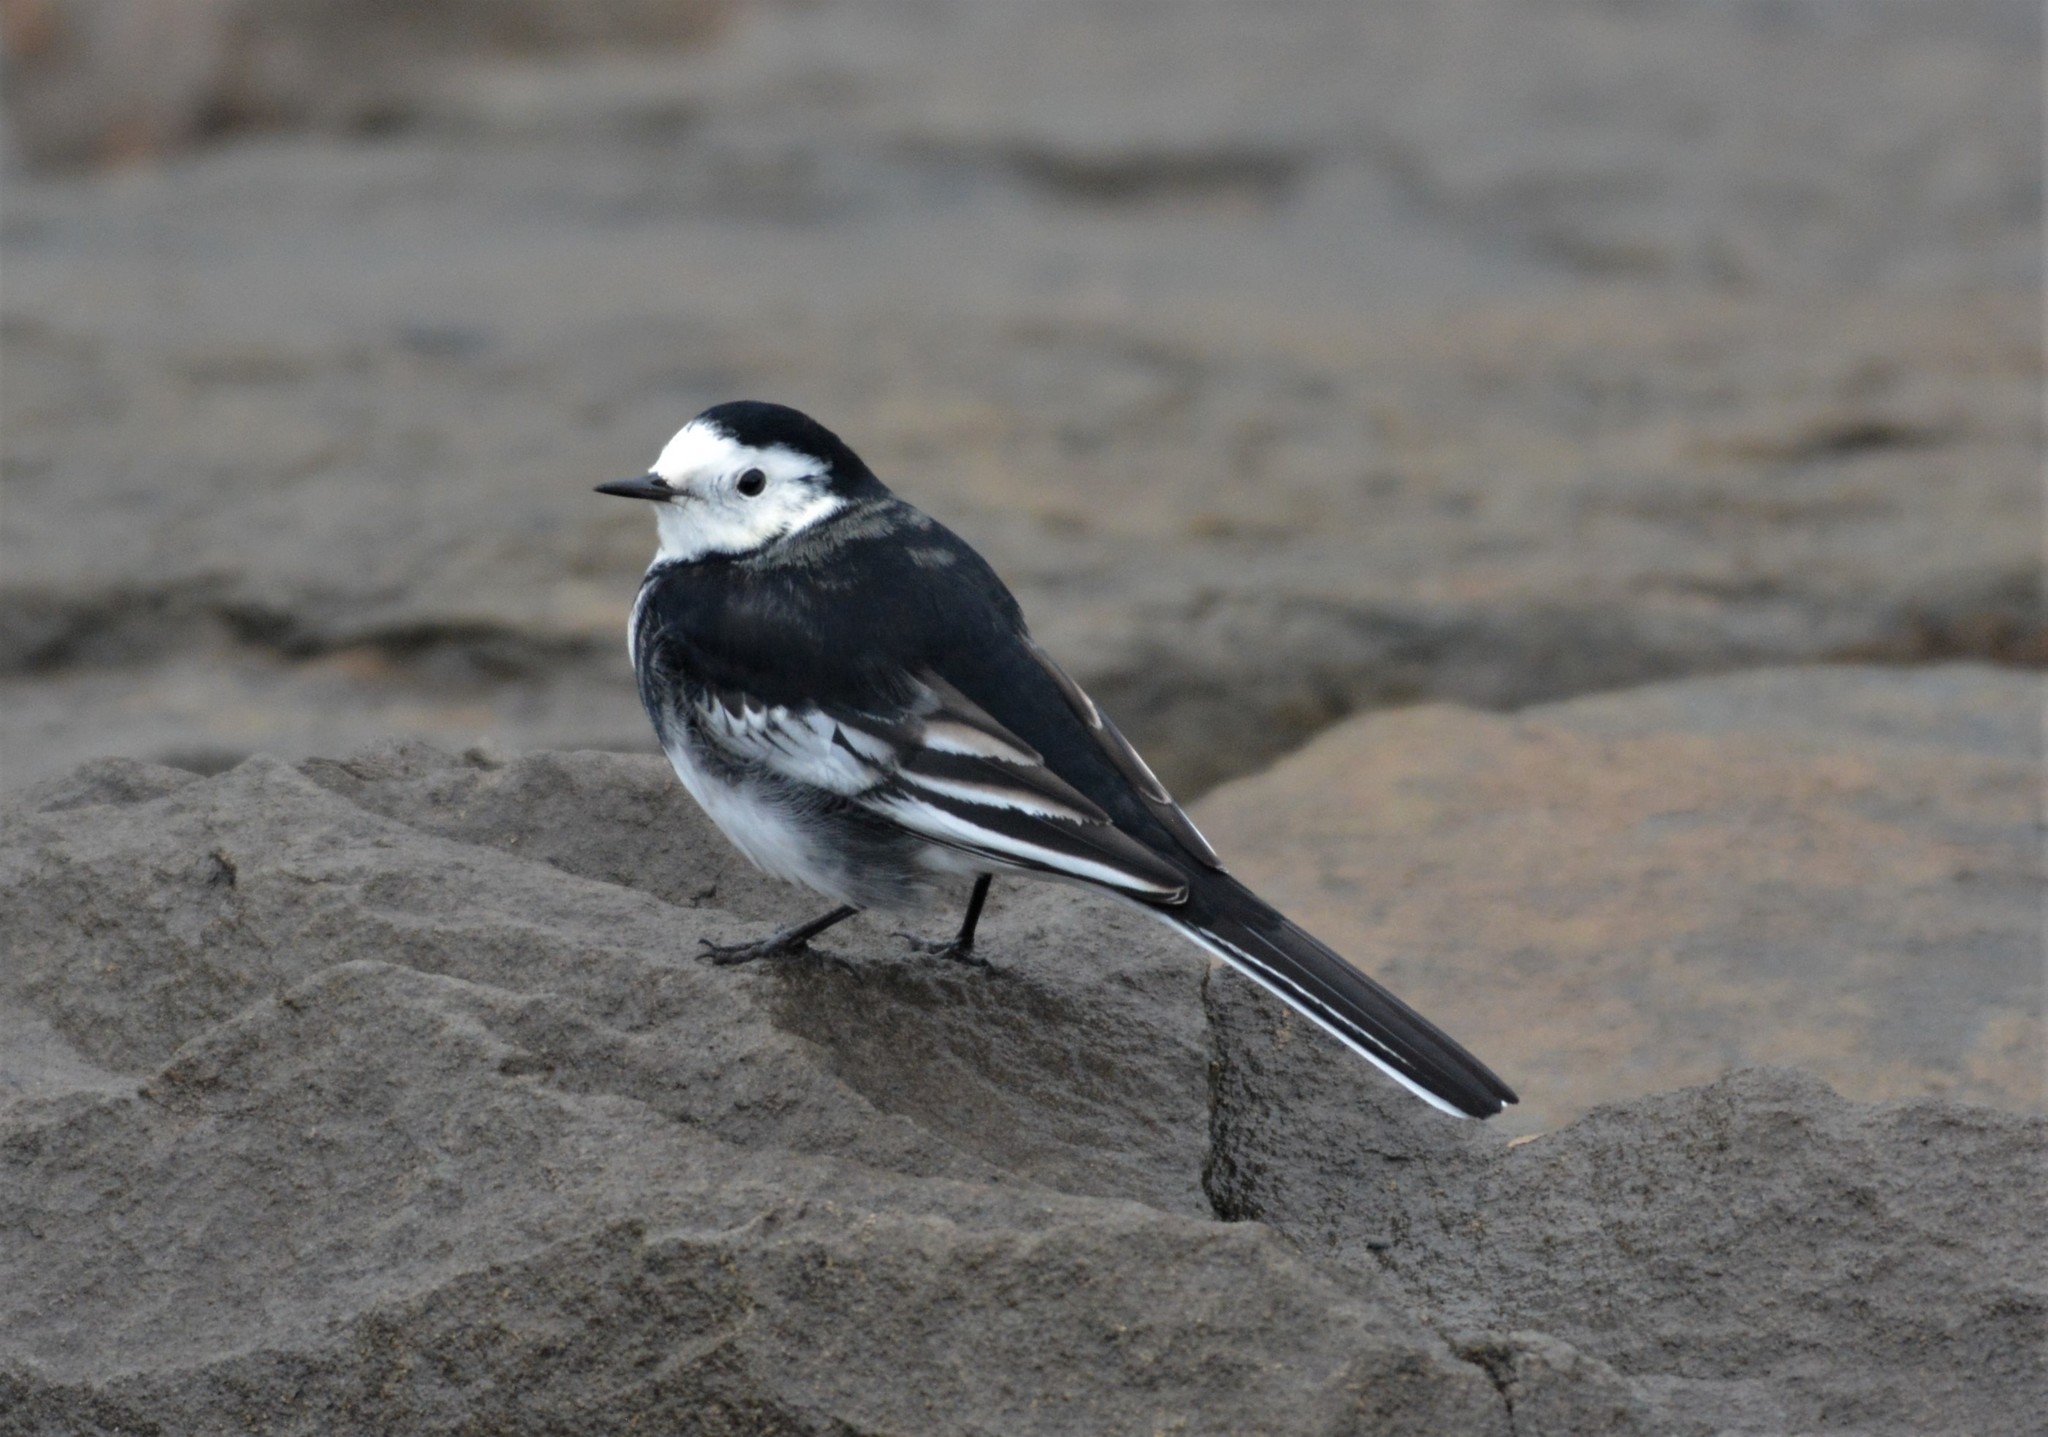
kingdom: Animalia
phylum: Chordata
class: Aves
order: Passeriformes
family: Motacillidae
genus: Motacilla
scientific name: Motacilla alba
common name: White wagtail
